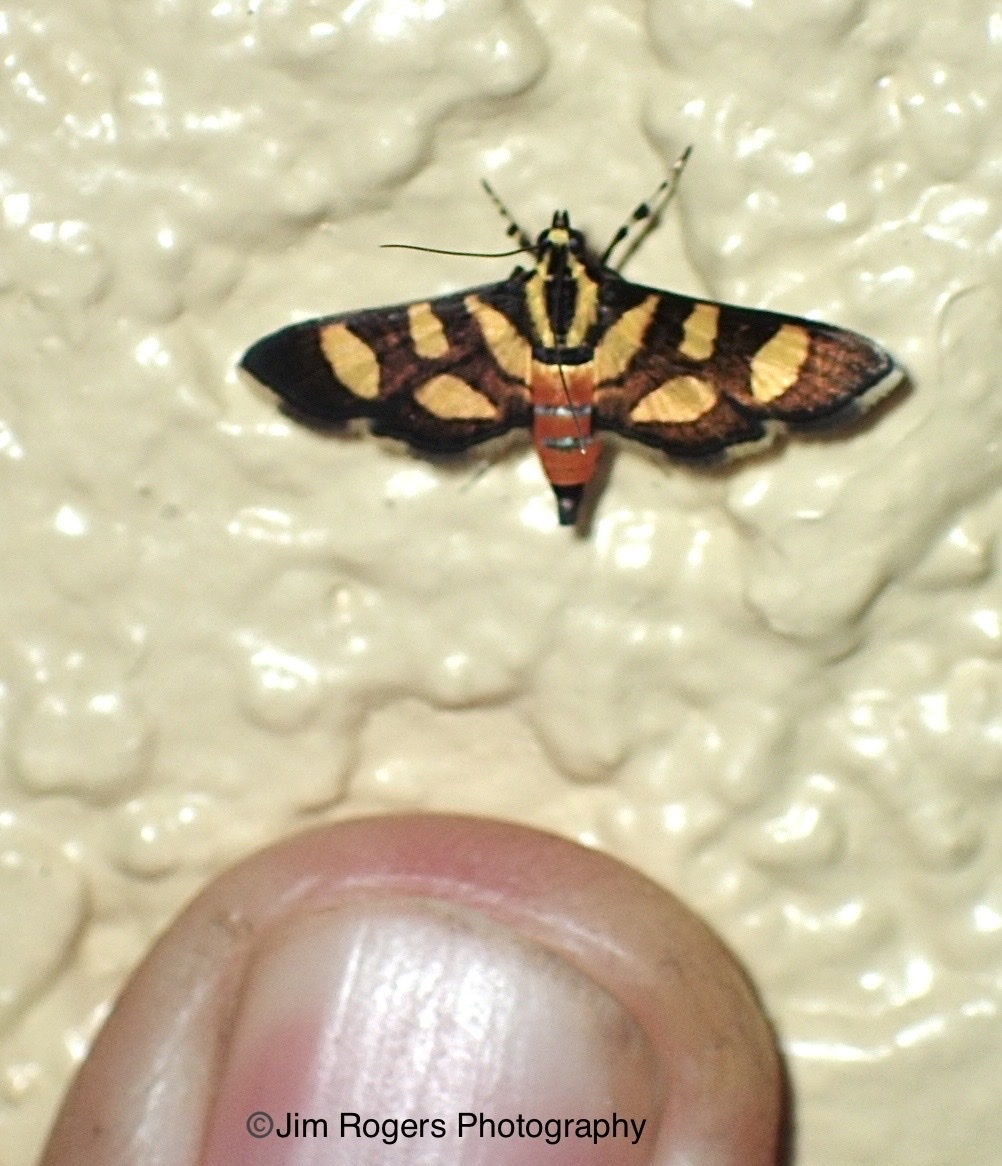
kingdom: Animalia
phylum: Arthropoda
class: Insecta
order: Lepidoptera
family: Crambidae
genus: Syngamia
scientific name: Syngamia florella
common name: Orange-spotted flower moth
